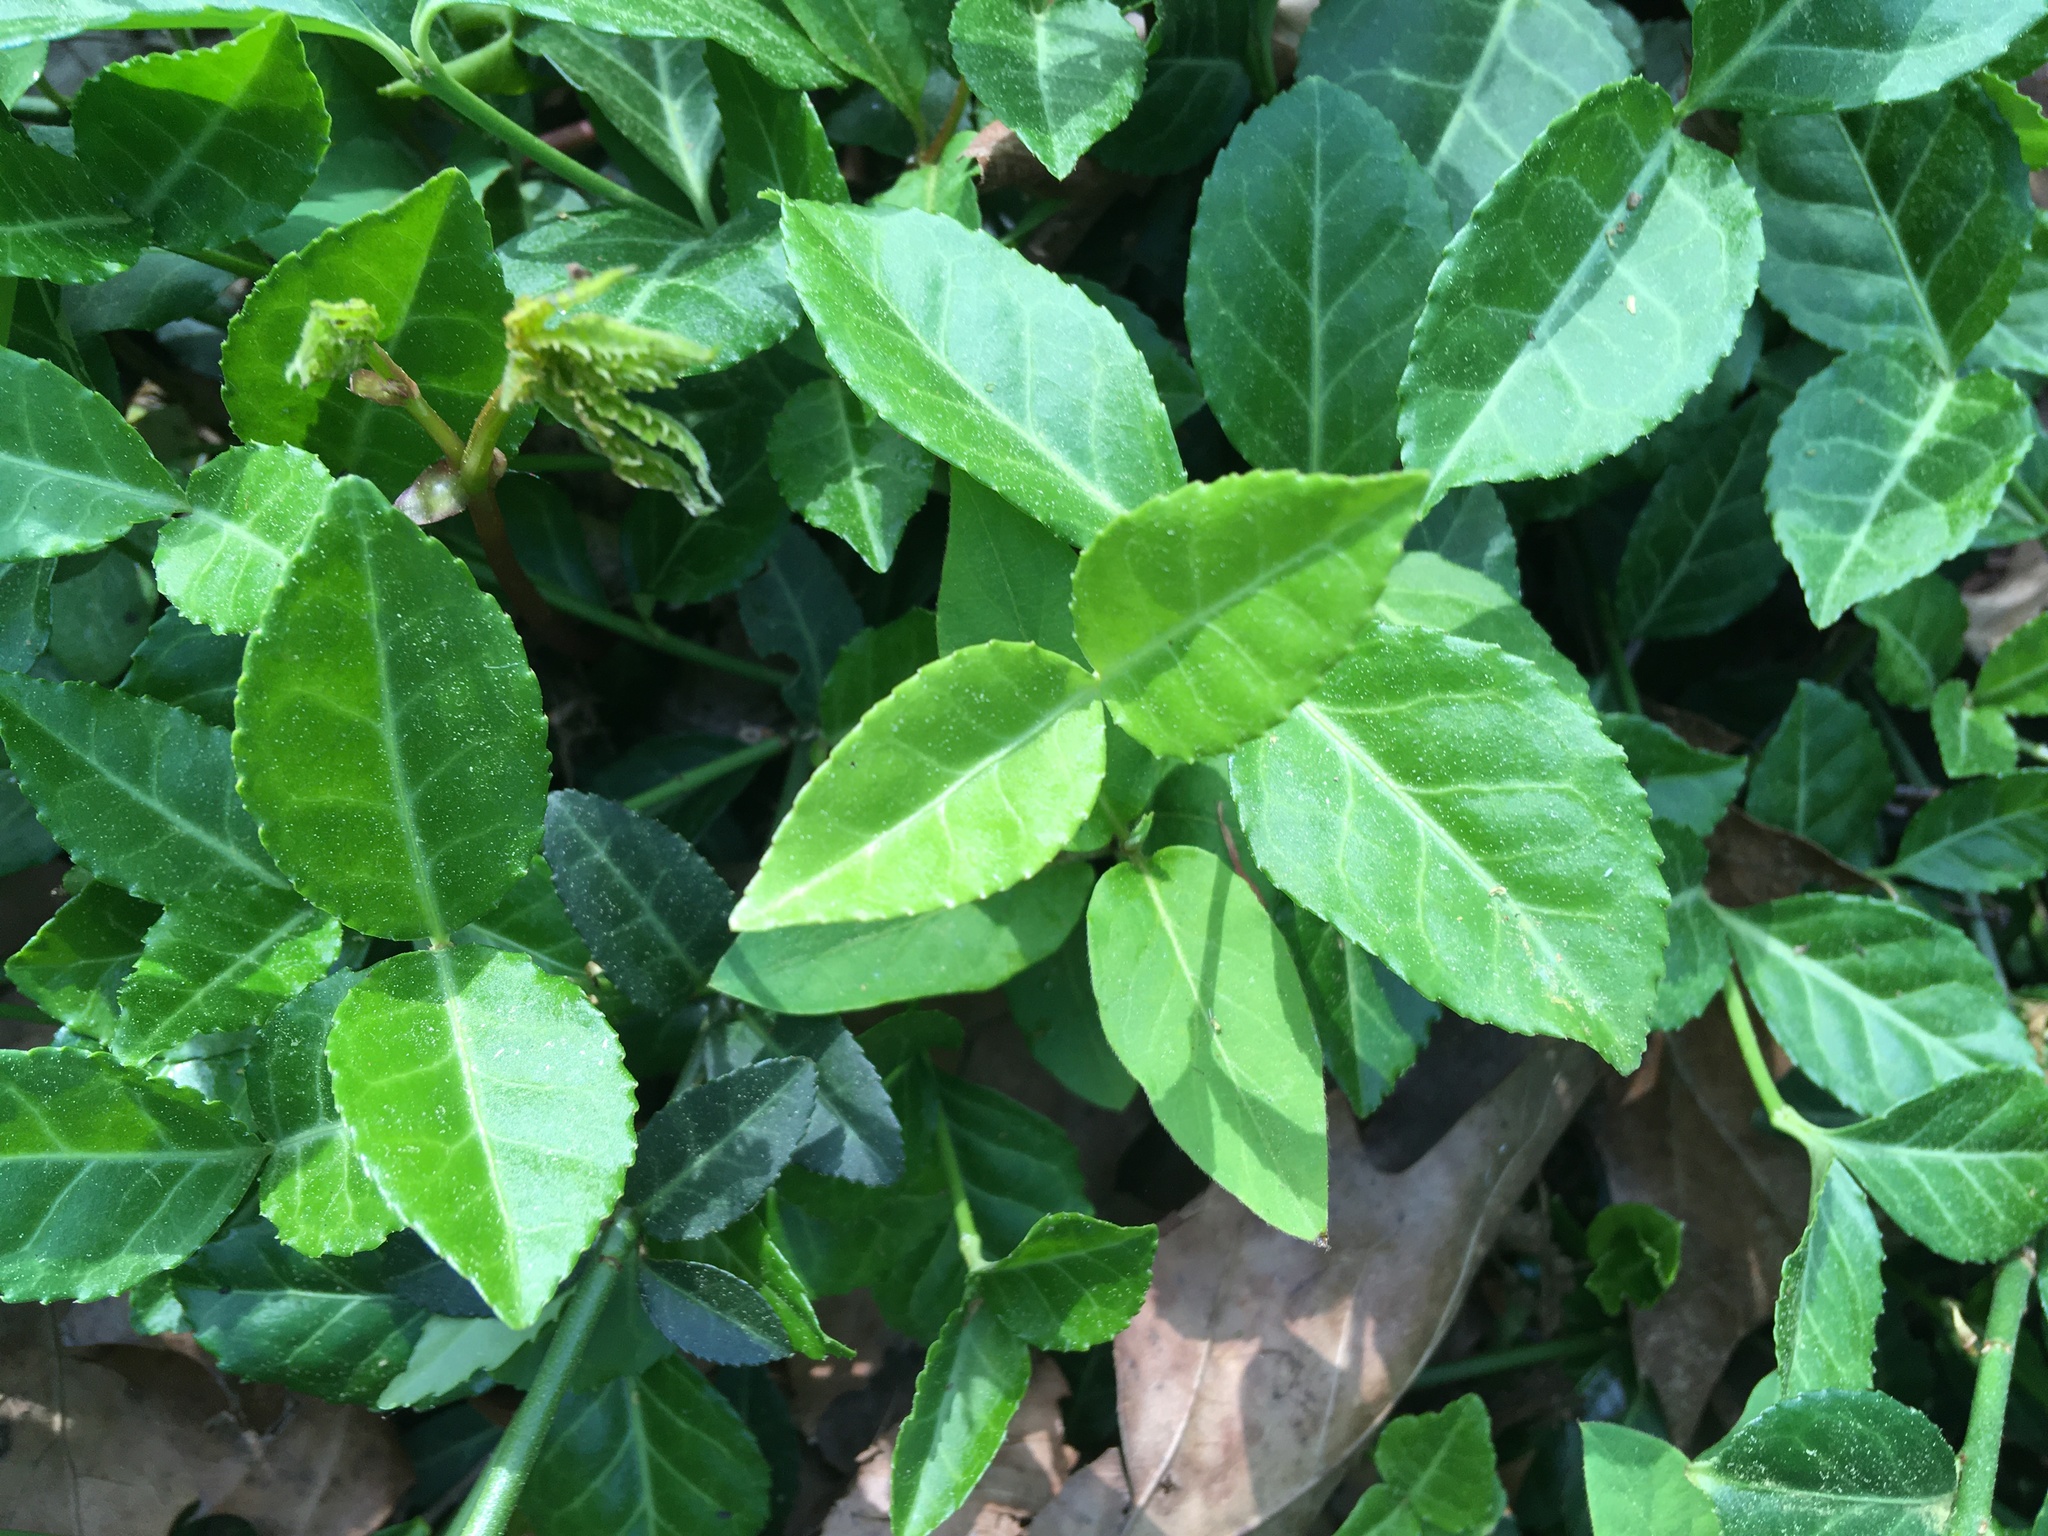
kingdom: Plantae
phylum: Tracheophyta
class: Magnoliopsida
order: Celastrales
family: Celastraceae
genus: Euonymus
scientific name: Euonymus fortunei
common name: Climbing euonymus
